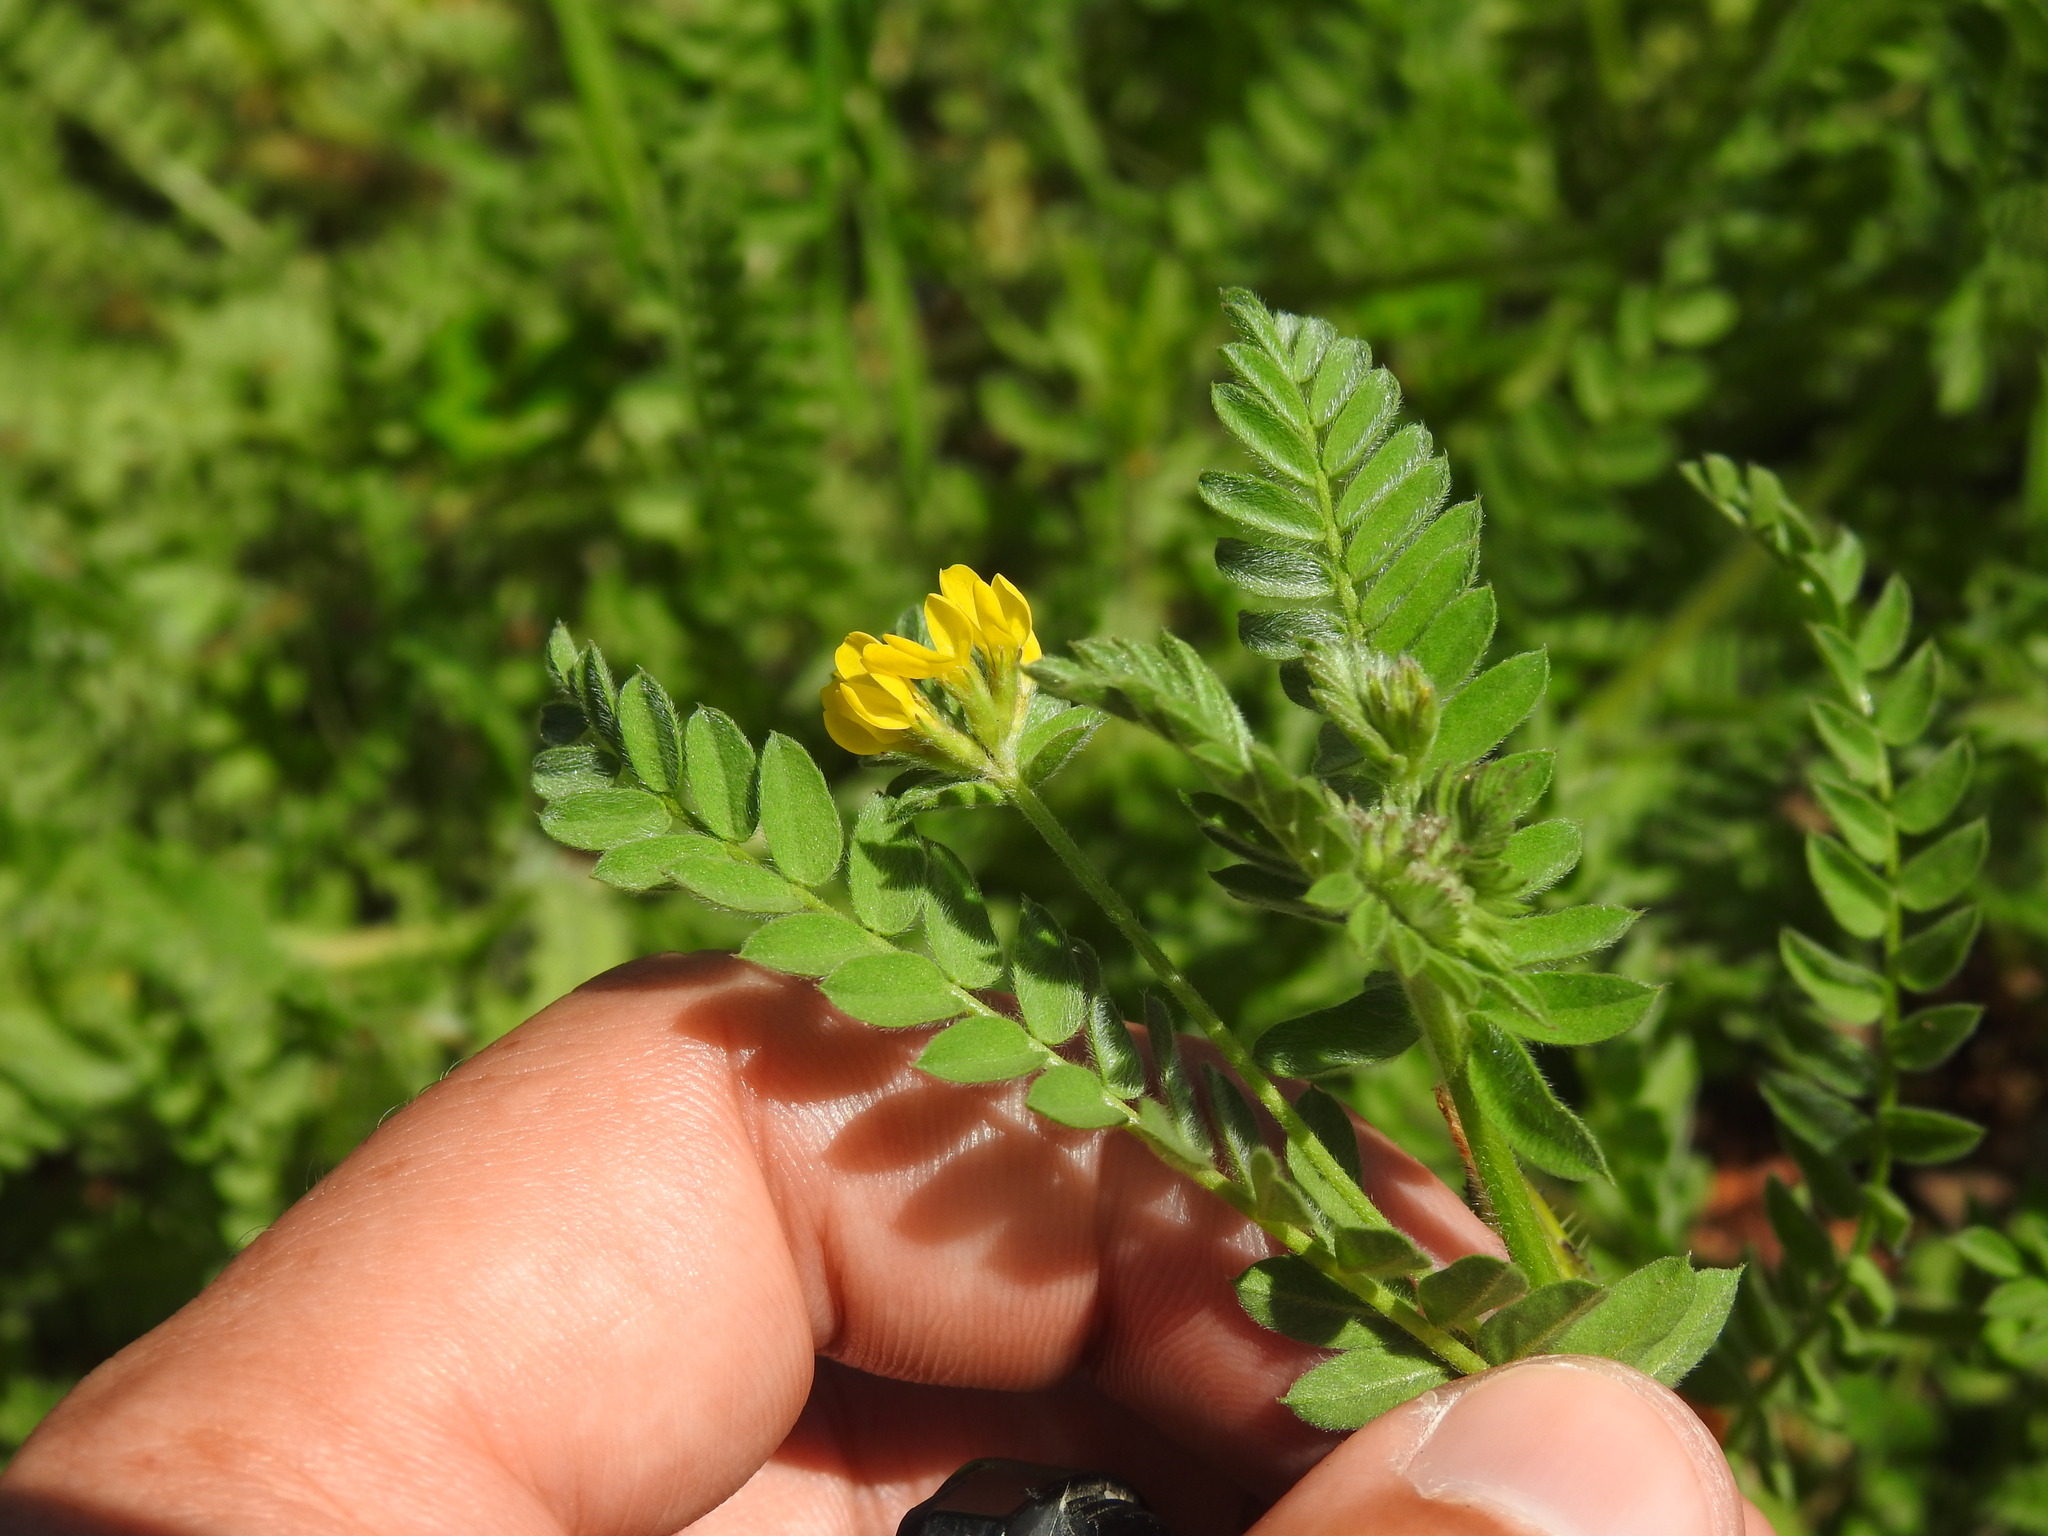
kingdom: Plantae
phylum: Tracheophyta
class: Magnoliopsida
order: Fabales
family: Fabaceae
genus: Ornithopus
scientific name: Ornithopus compressus
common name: Yellow serradella
